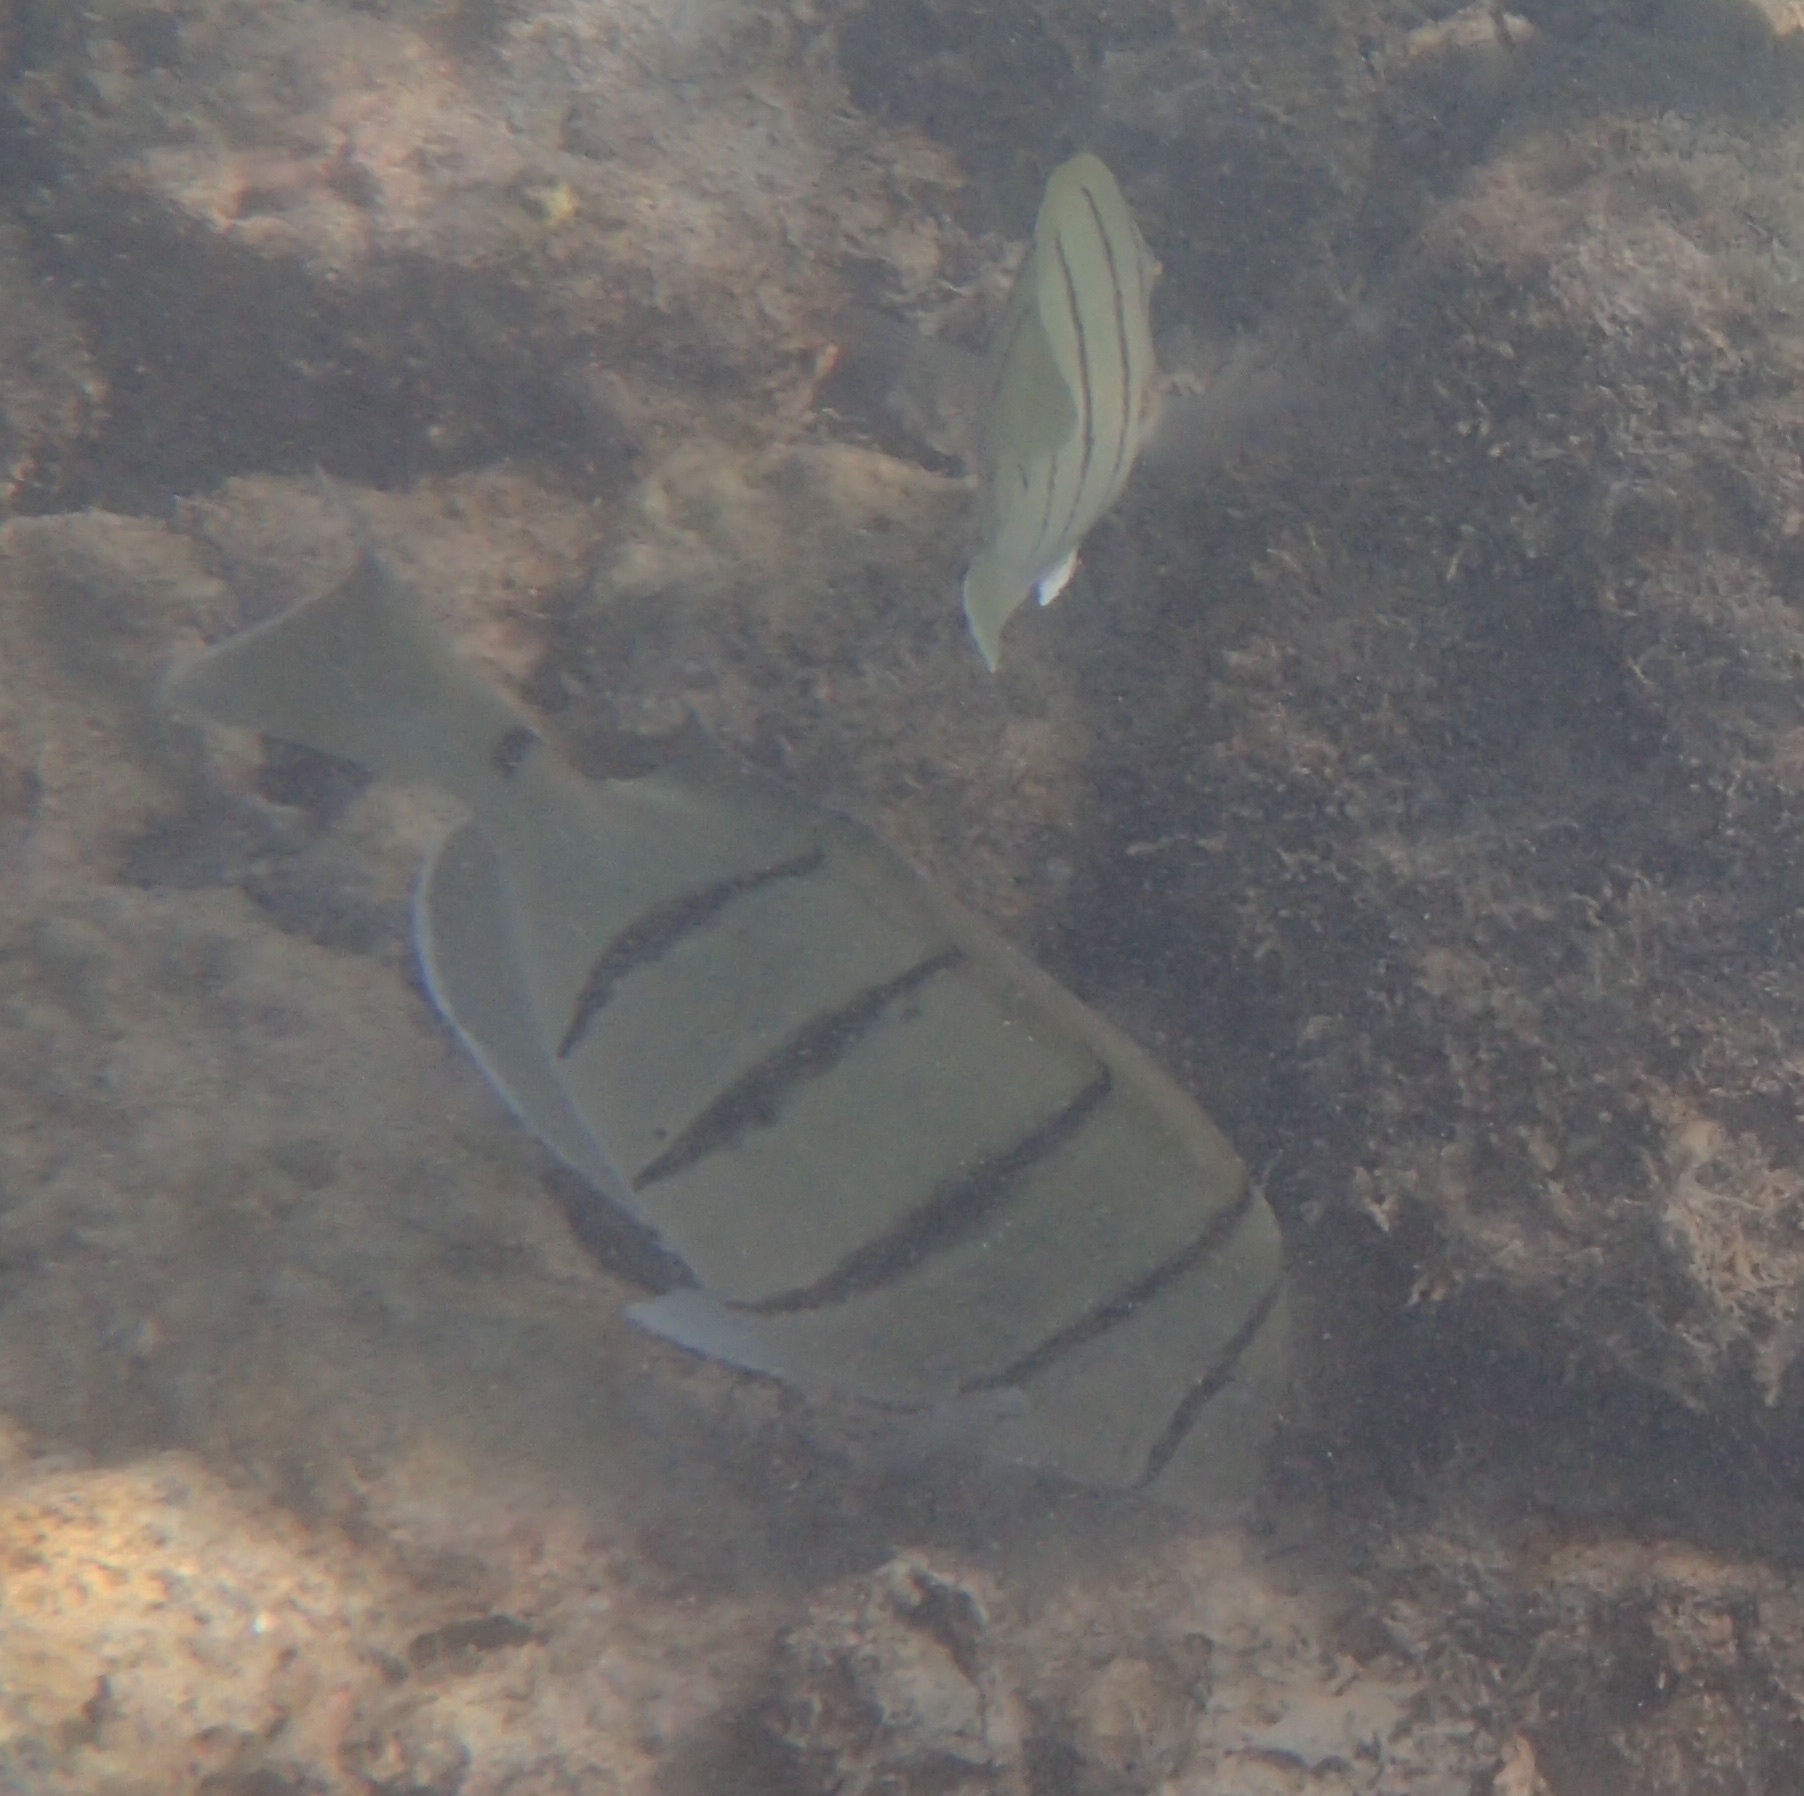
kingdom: Animalia
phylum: Chordata
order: Perciformes
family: Acanthuridae
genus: Acanthurus
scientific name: Acanthurus triostegus
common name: Convict surgeonfish
